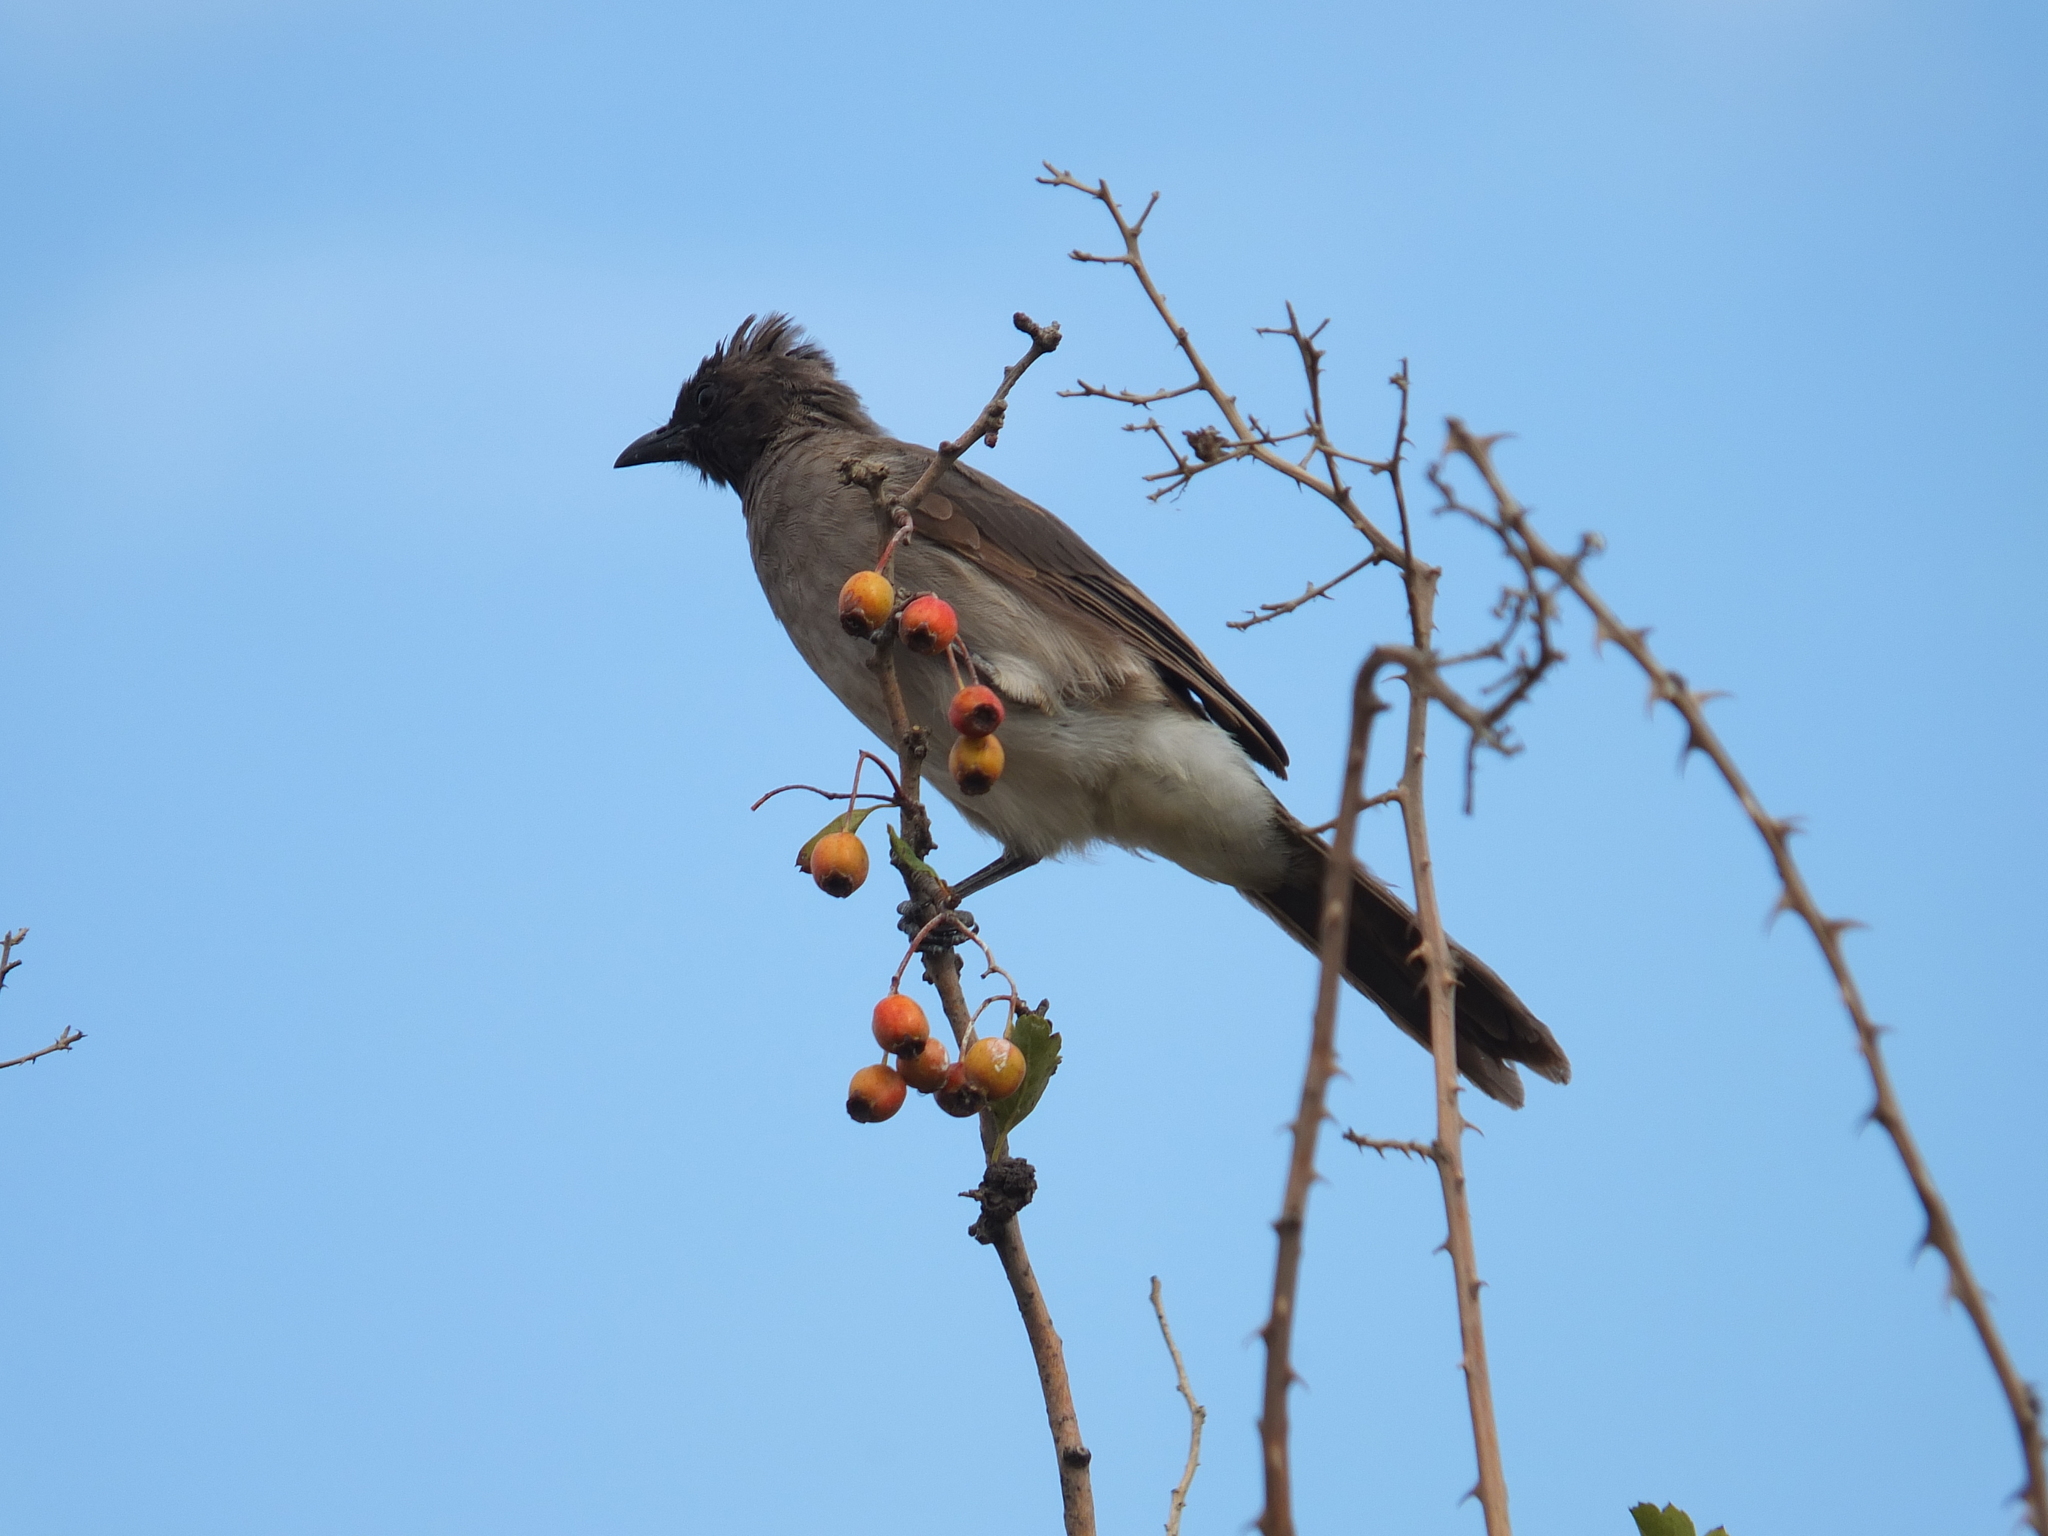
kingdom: Animalia
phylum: Chordata
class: Aves
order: Passeriformes
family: Pycnonotidae
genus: Pycnonotus
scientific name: Pycnonotus barbatus
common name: Common bulbul
